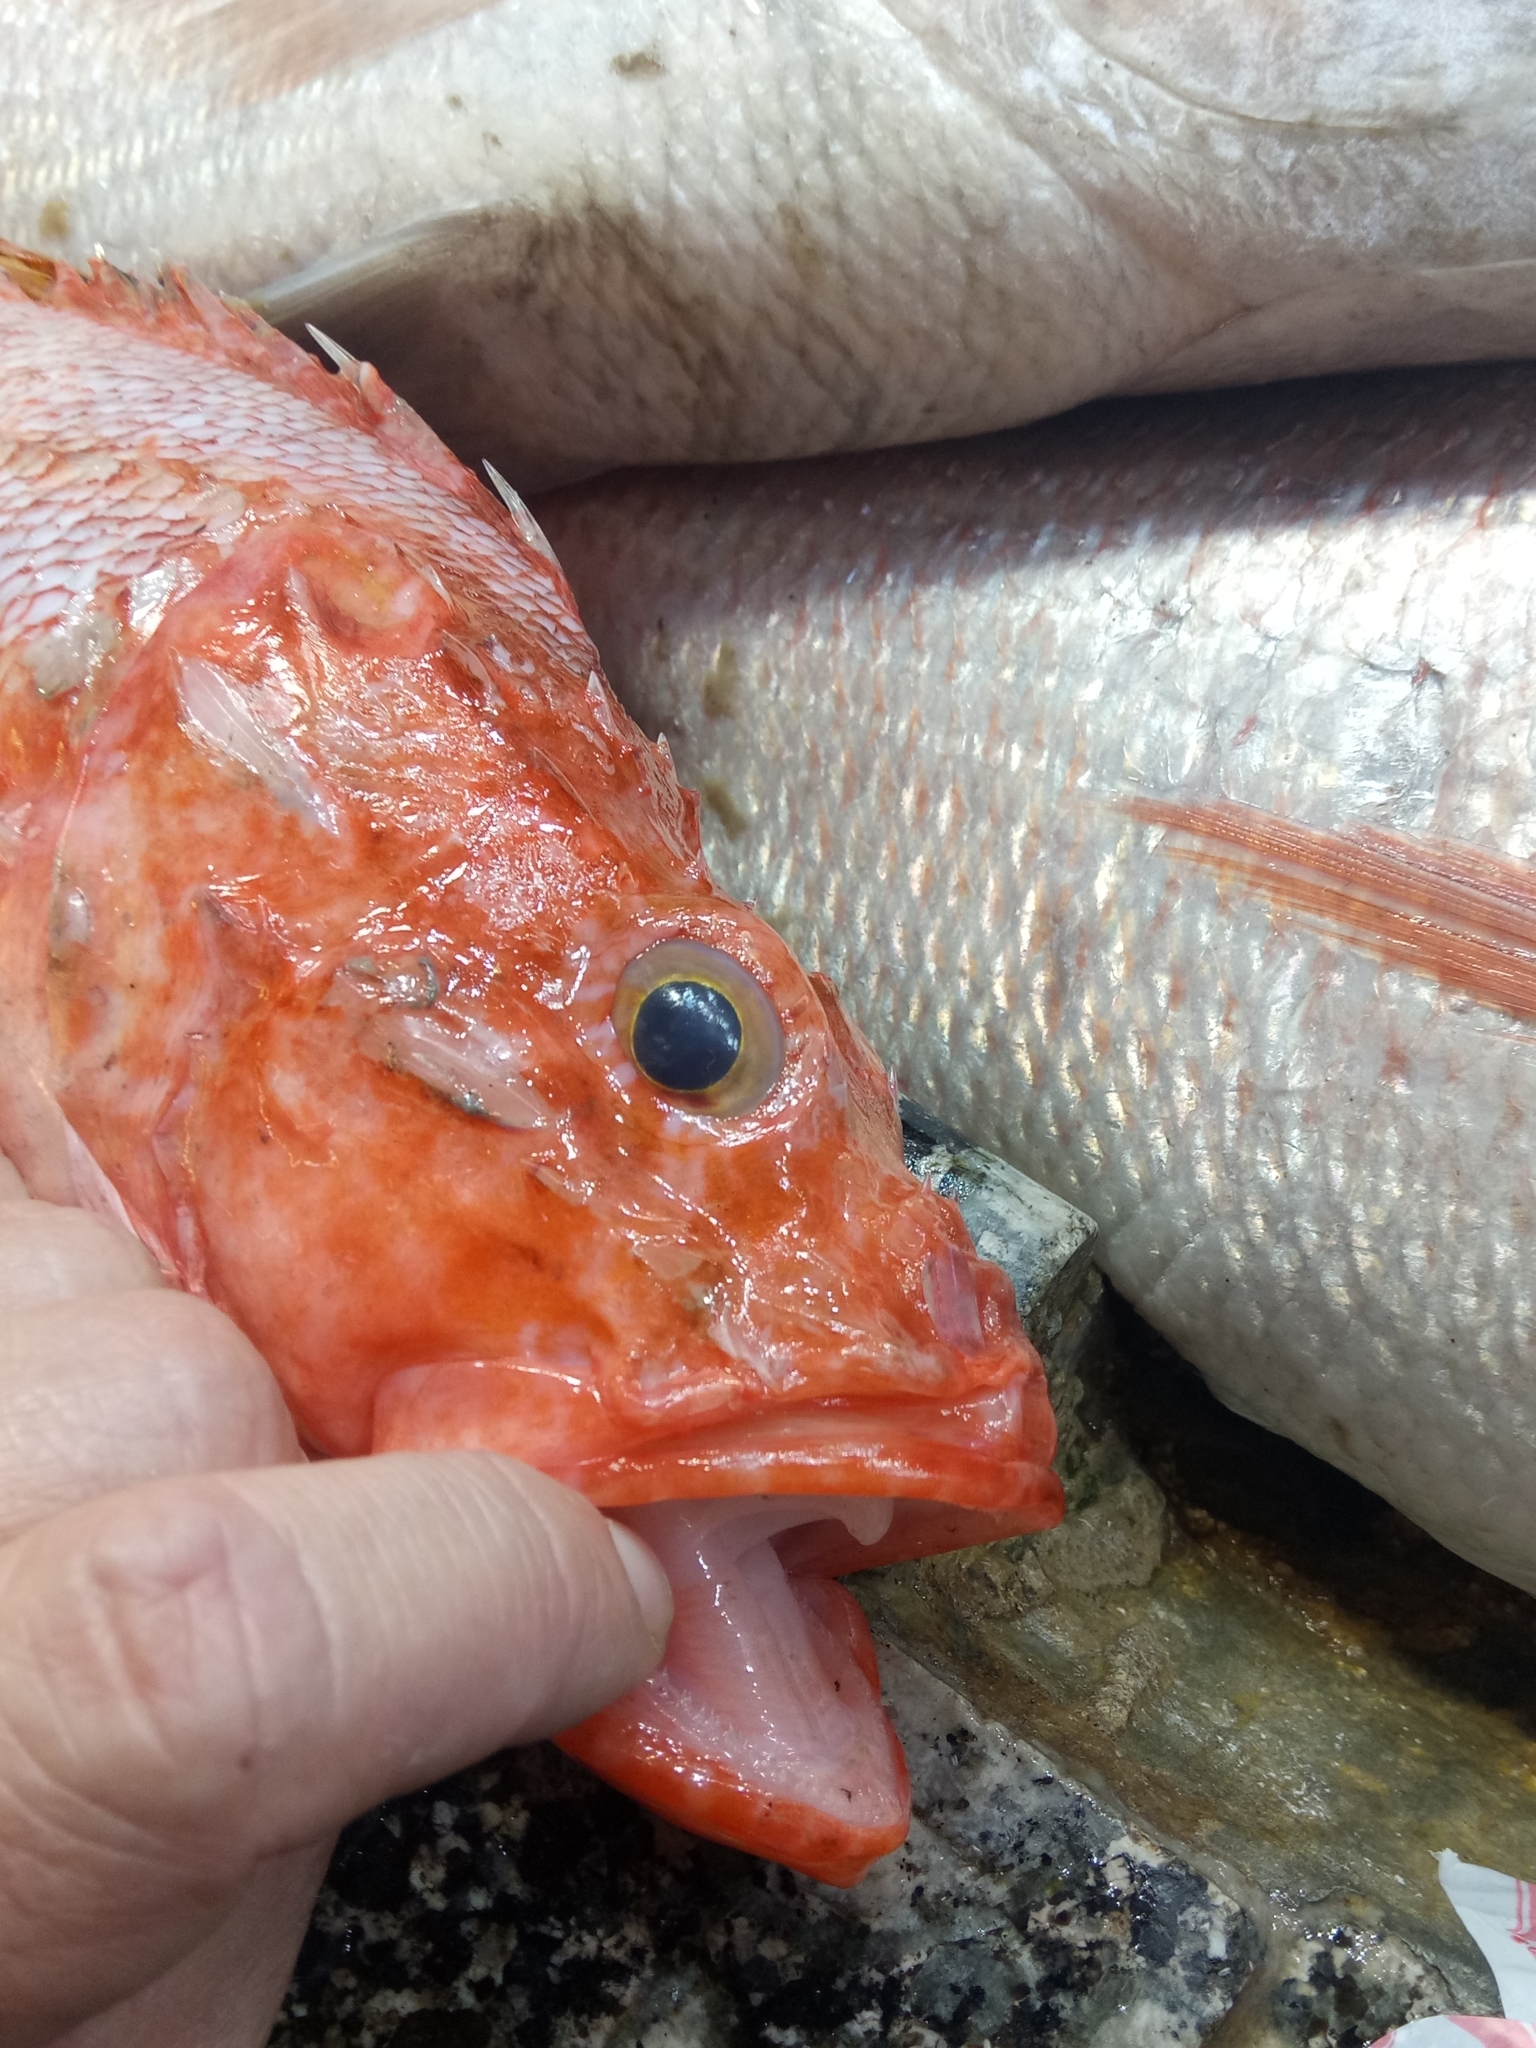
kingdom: Animalia
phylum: Chordata
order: Scorpaeniformes
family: Scorpaenidae
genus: Scorpaena
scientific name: Scorpaena elongata
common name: Slender rockfish
